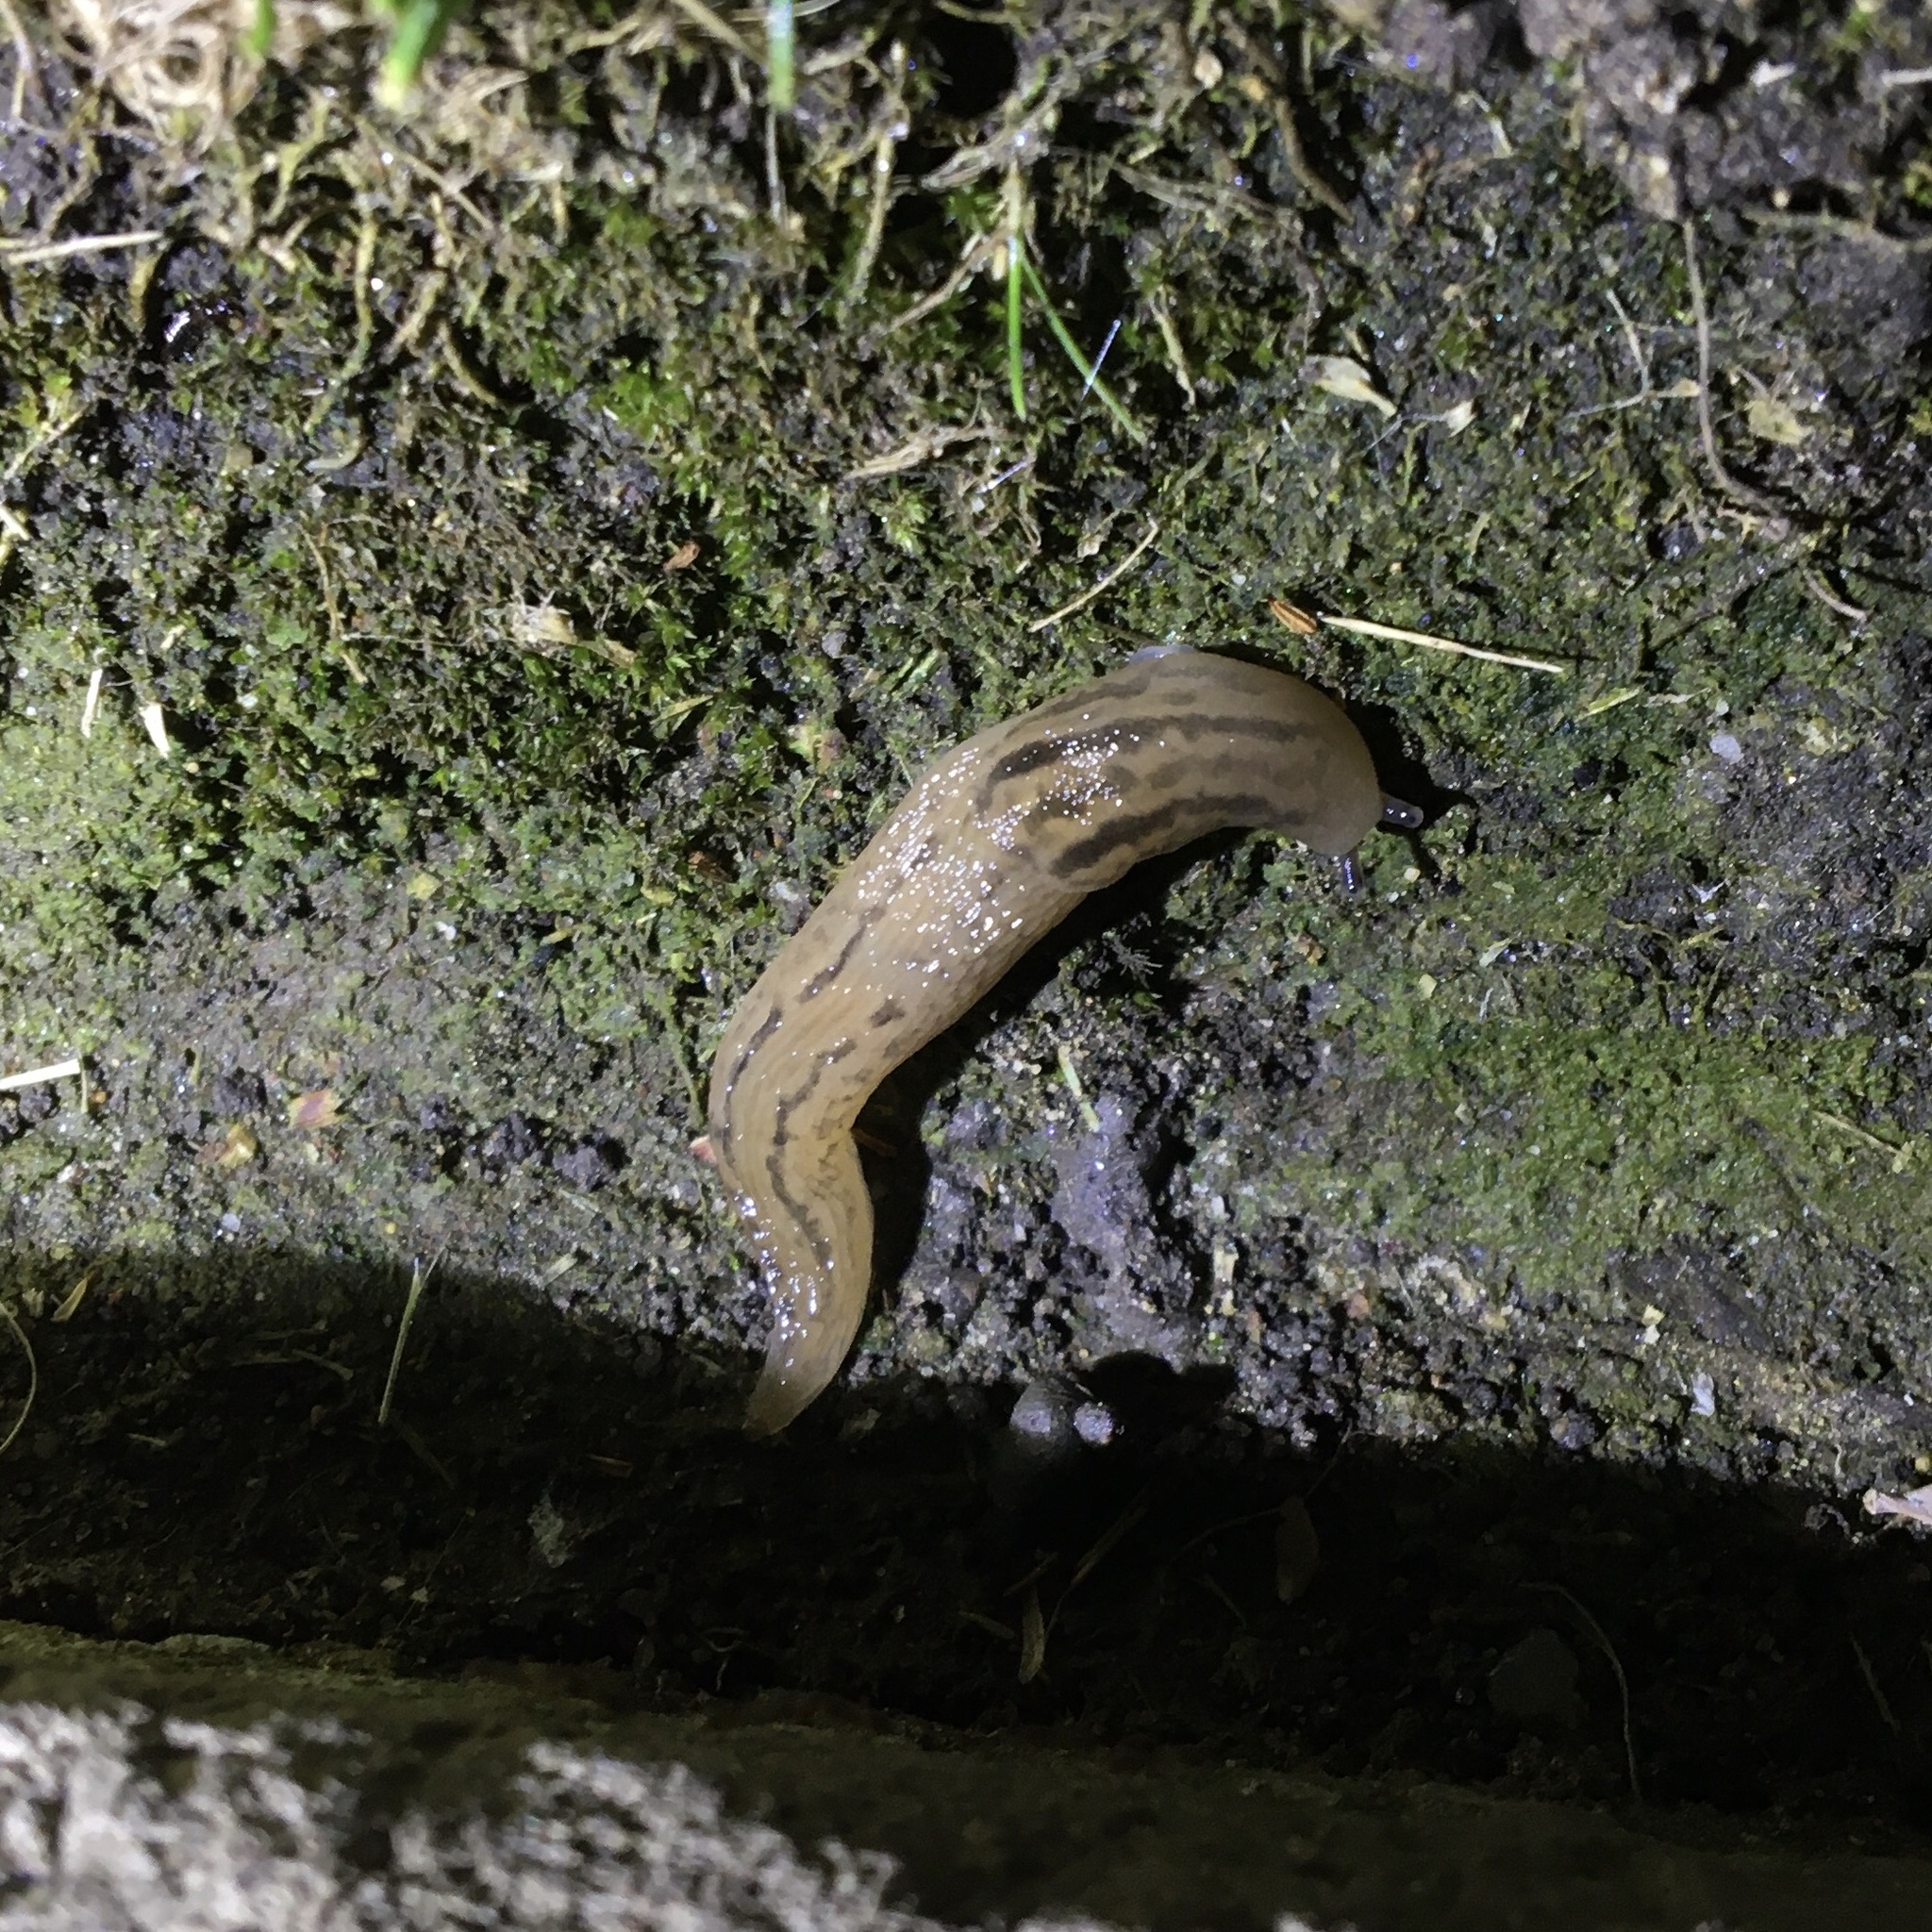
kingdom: Animalia
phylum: Mollusca
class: Gastropoda
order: Stylommatophora
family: Limacidae
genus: Ambigolimax
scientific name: Ambigolimax
